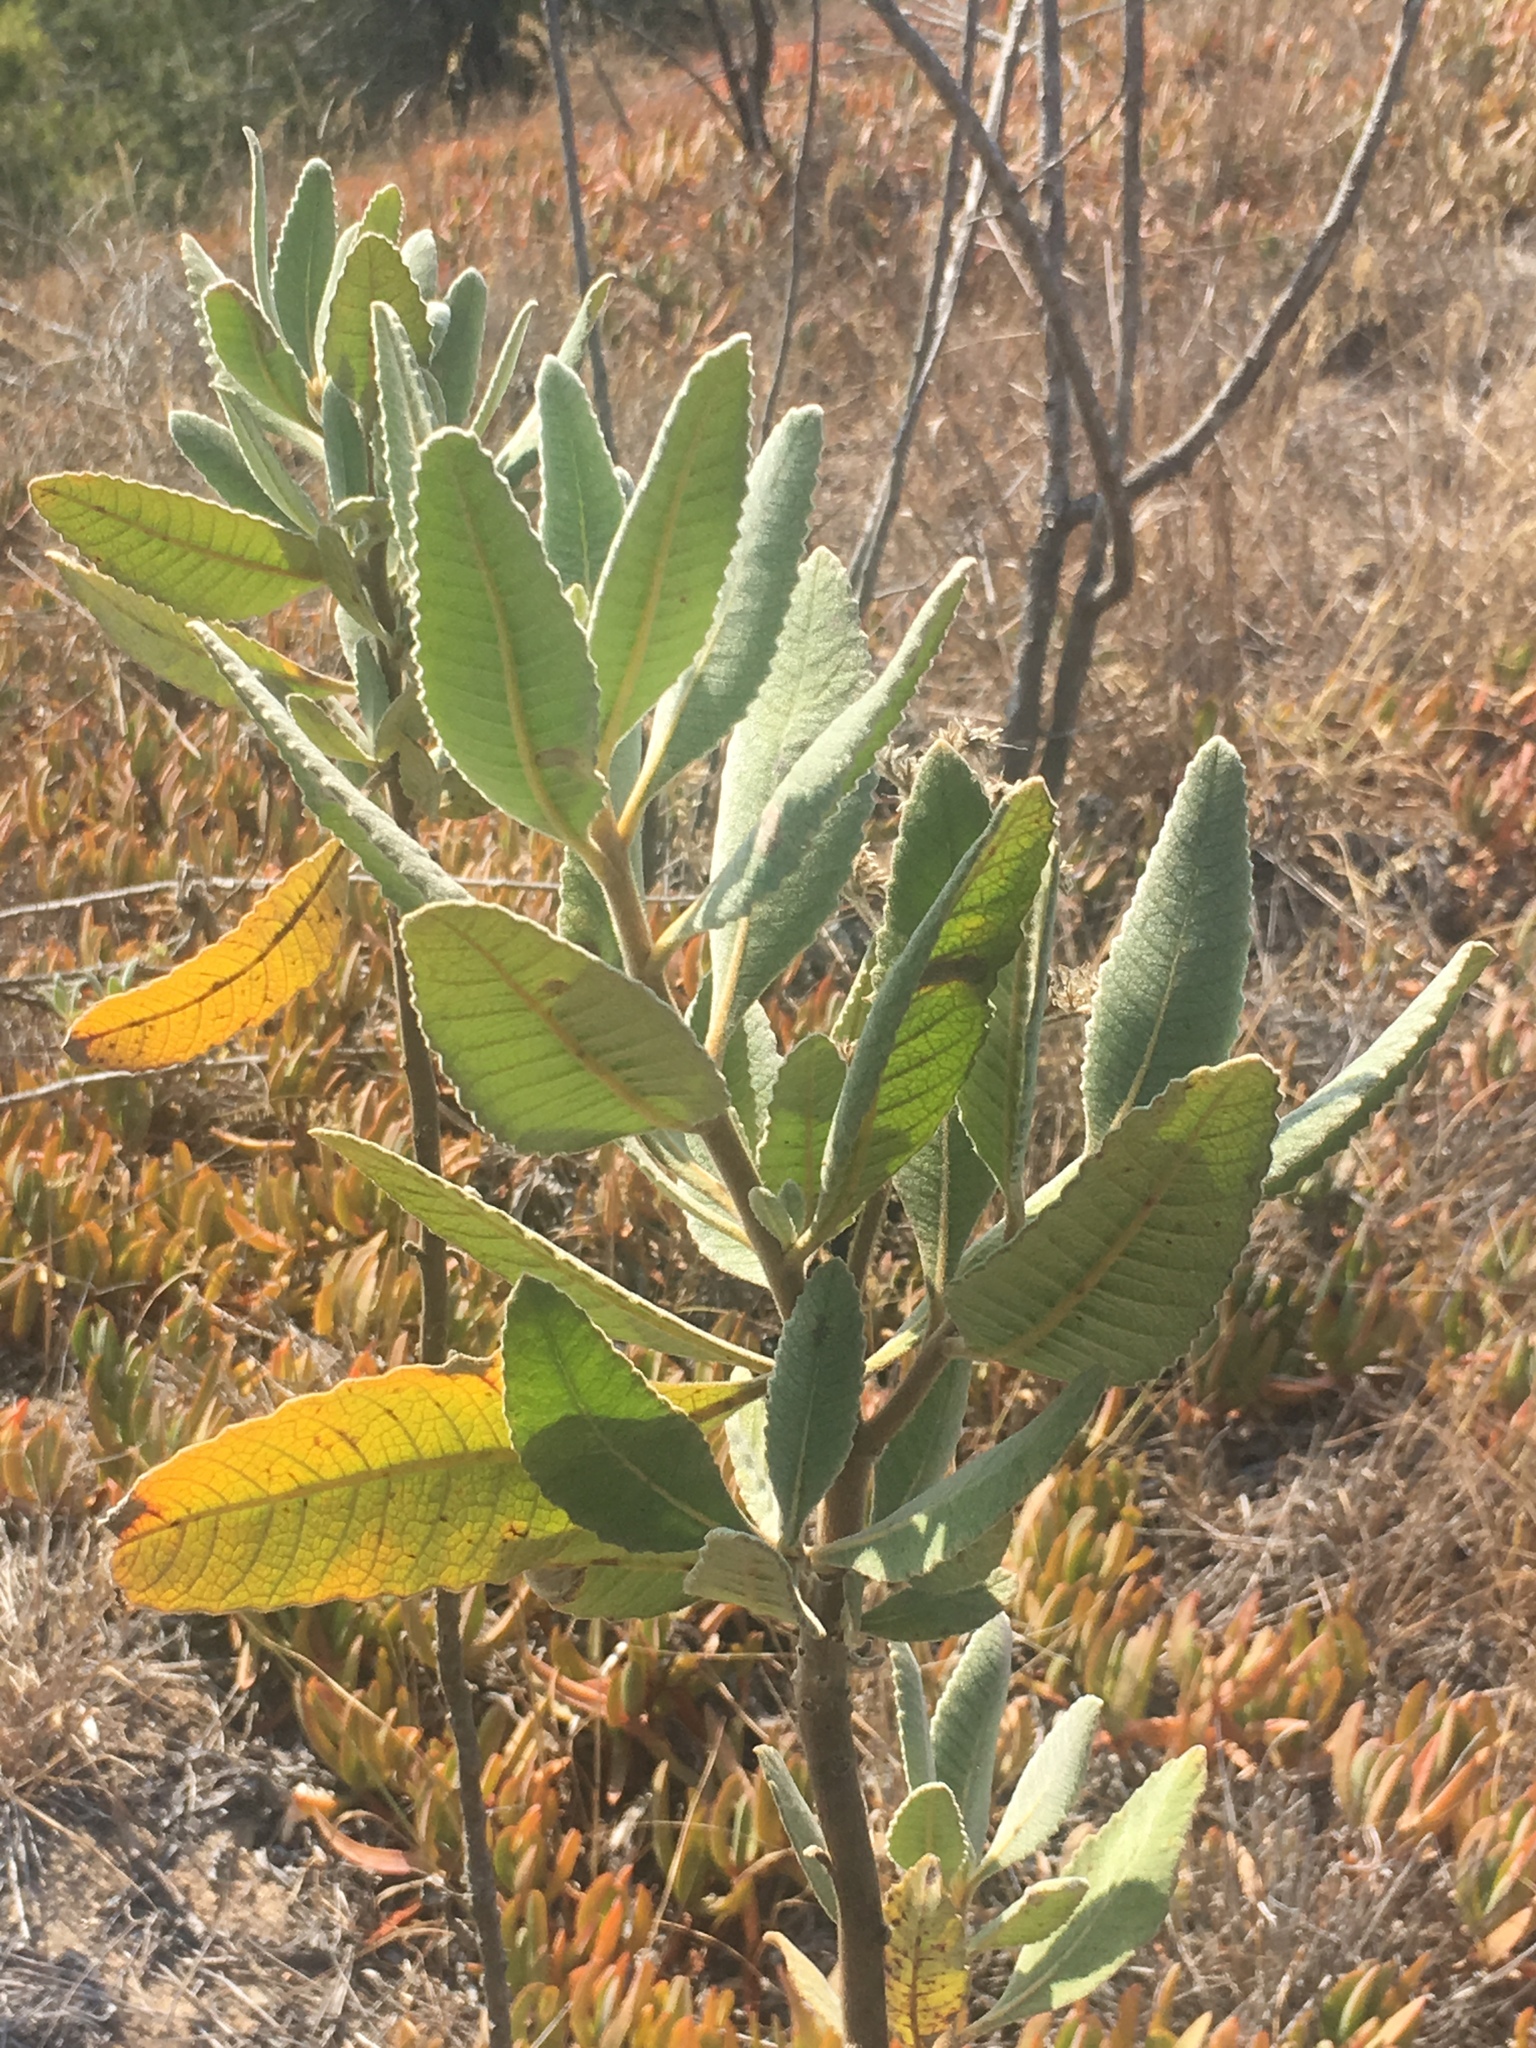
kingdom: Plantae
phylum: Tracheophyta
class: Magnoliopsida
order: Boraginales
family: Namaceae
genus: Eriodictyon
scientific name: Eriodictyon crassifolium
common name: Thick-leaf yerba-santa
